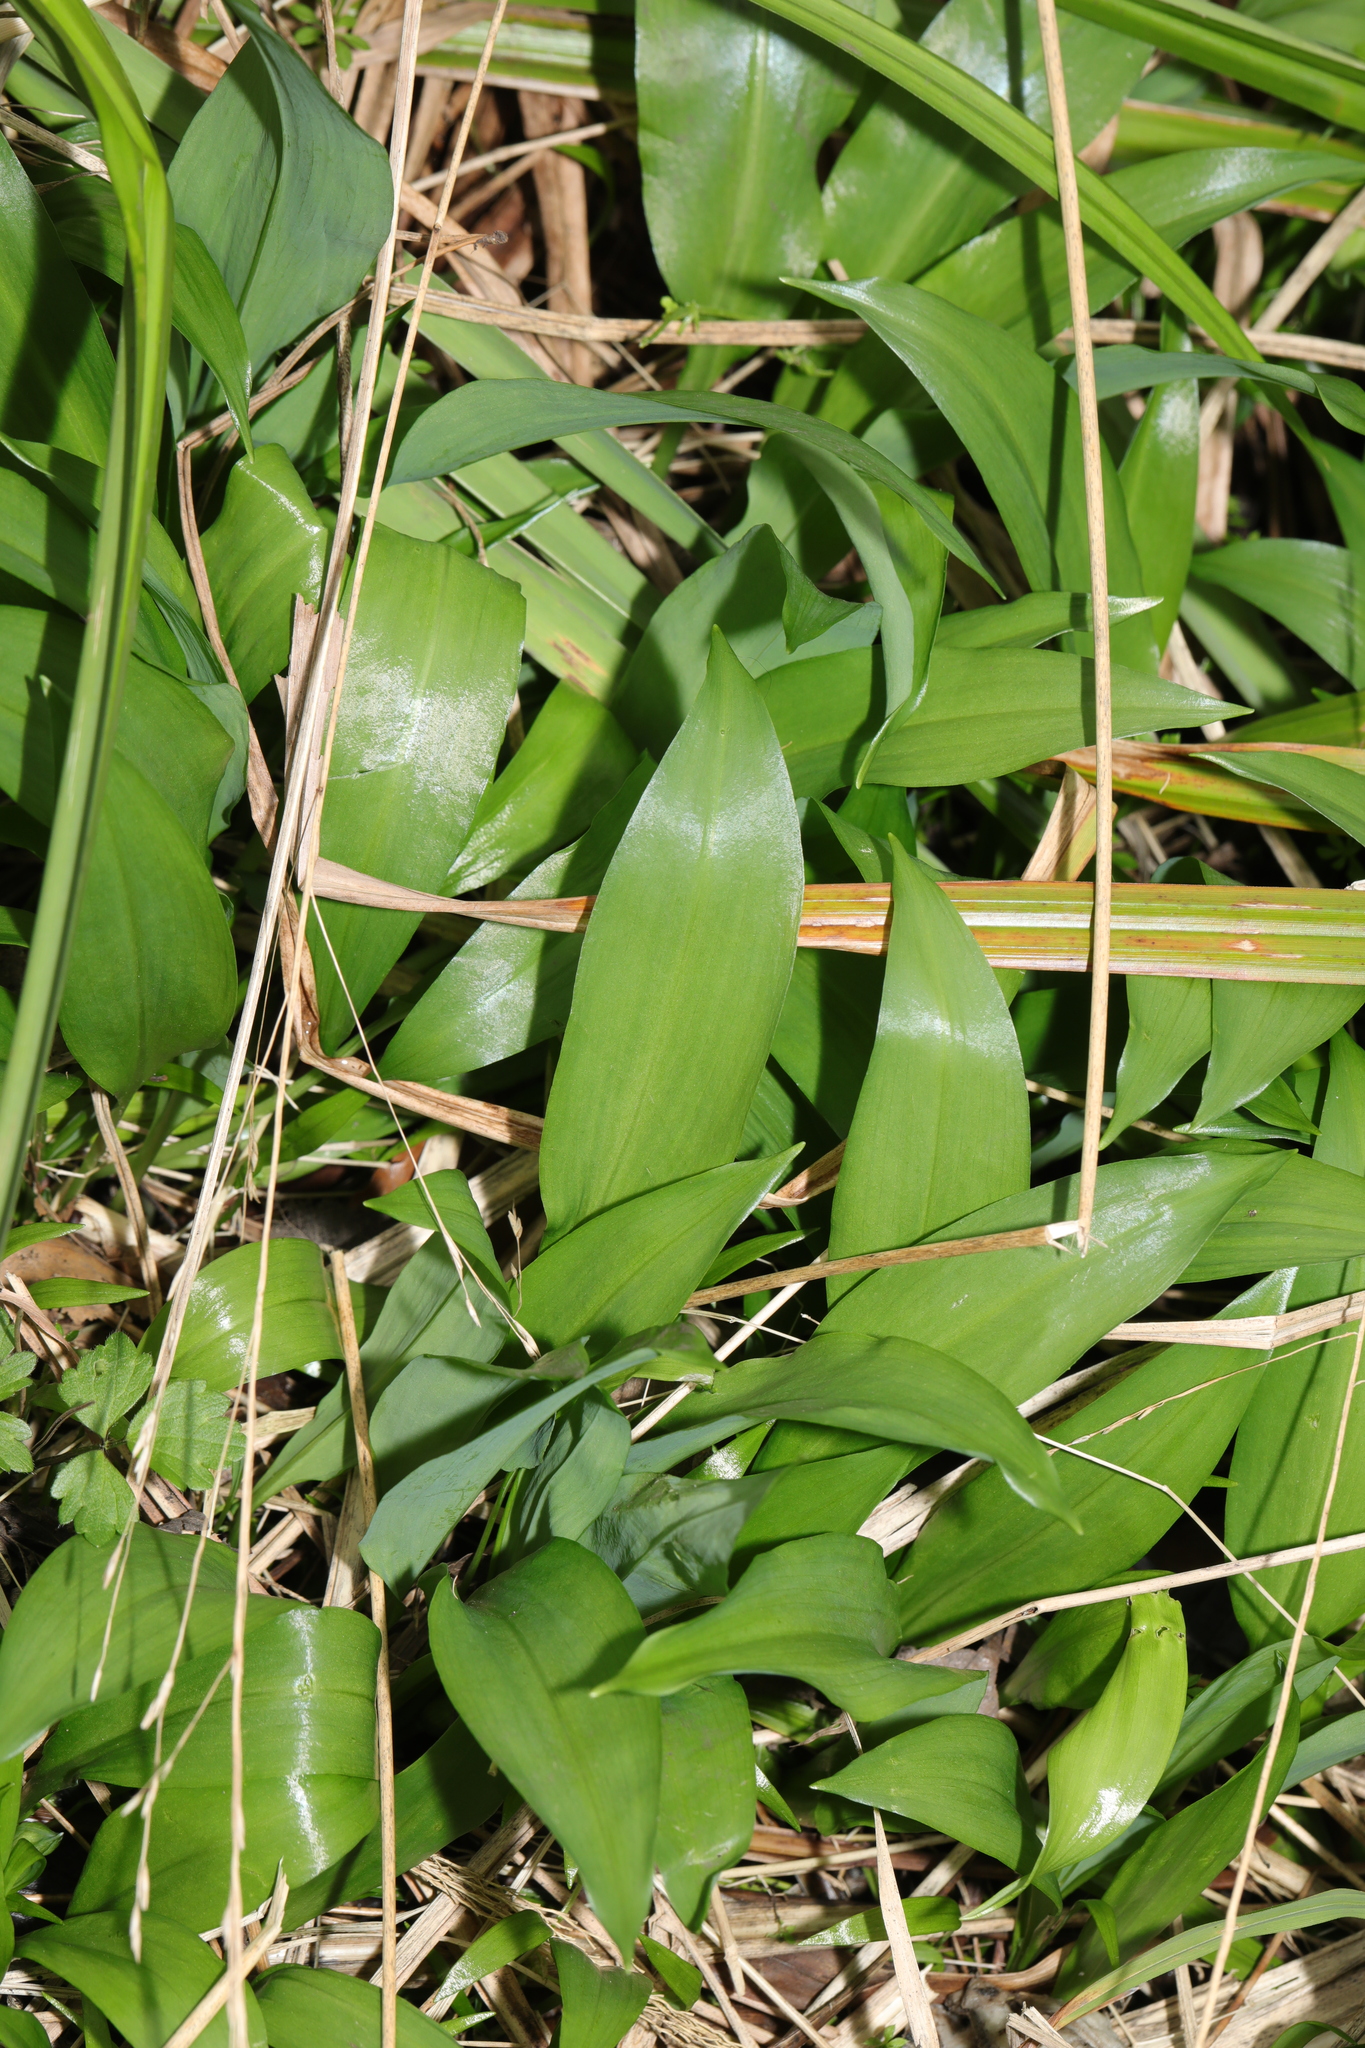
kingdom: Plantae
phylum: Tracheophyta
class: Liliopsida
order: Asparagales
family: Amaryllidaceae
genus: Allium
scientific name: Allium ursinum
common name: Ramsons
